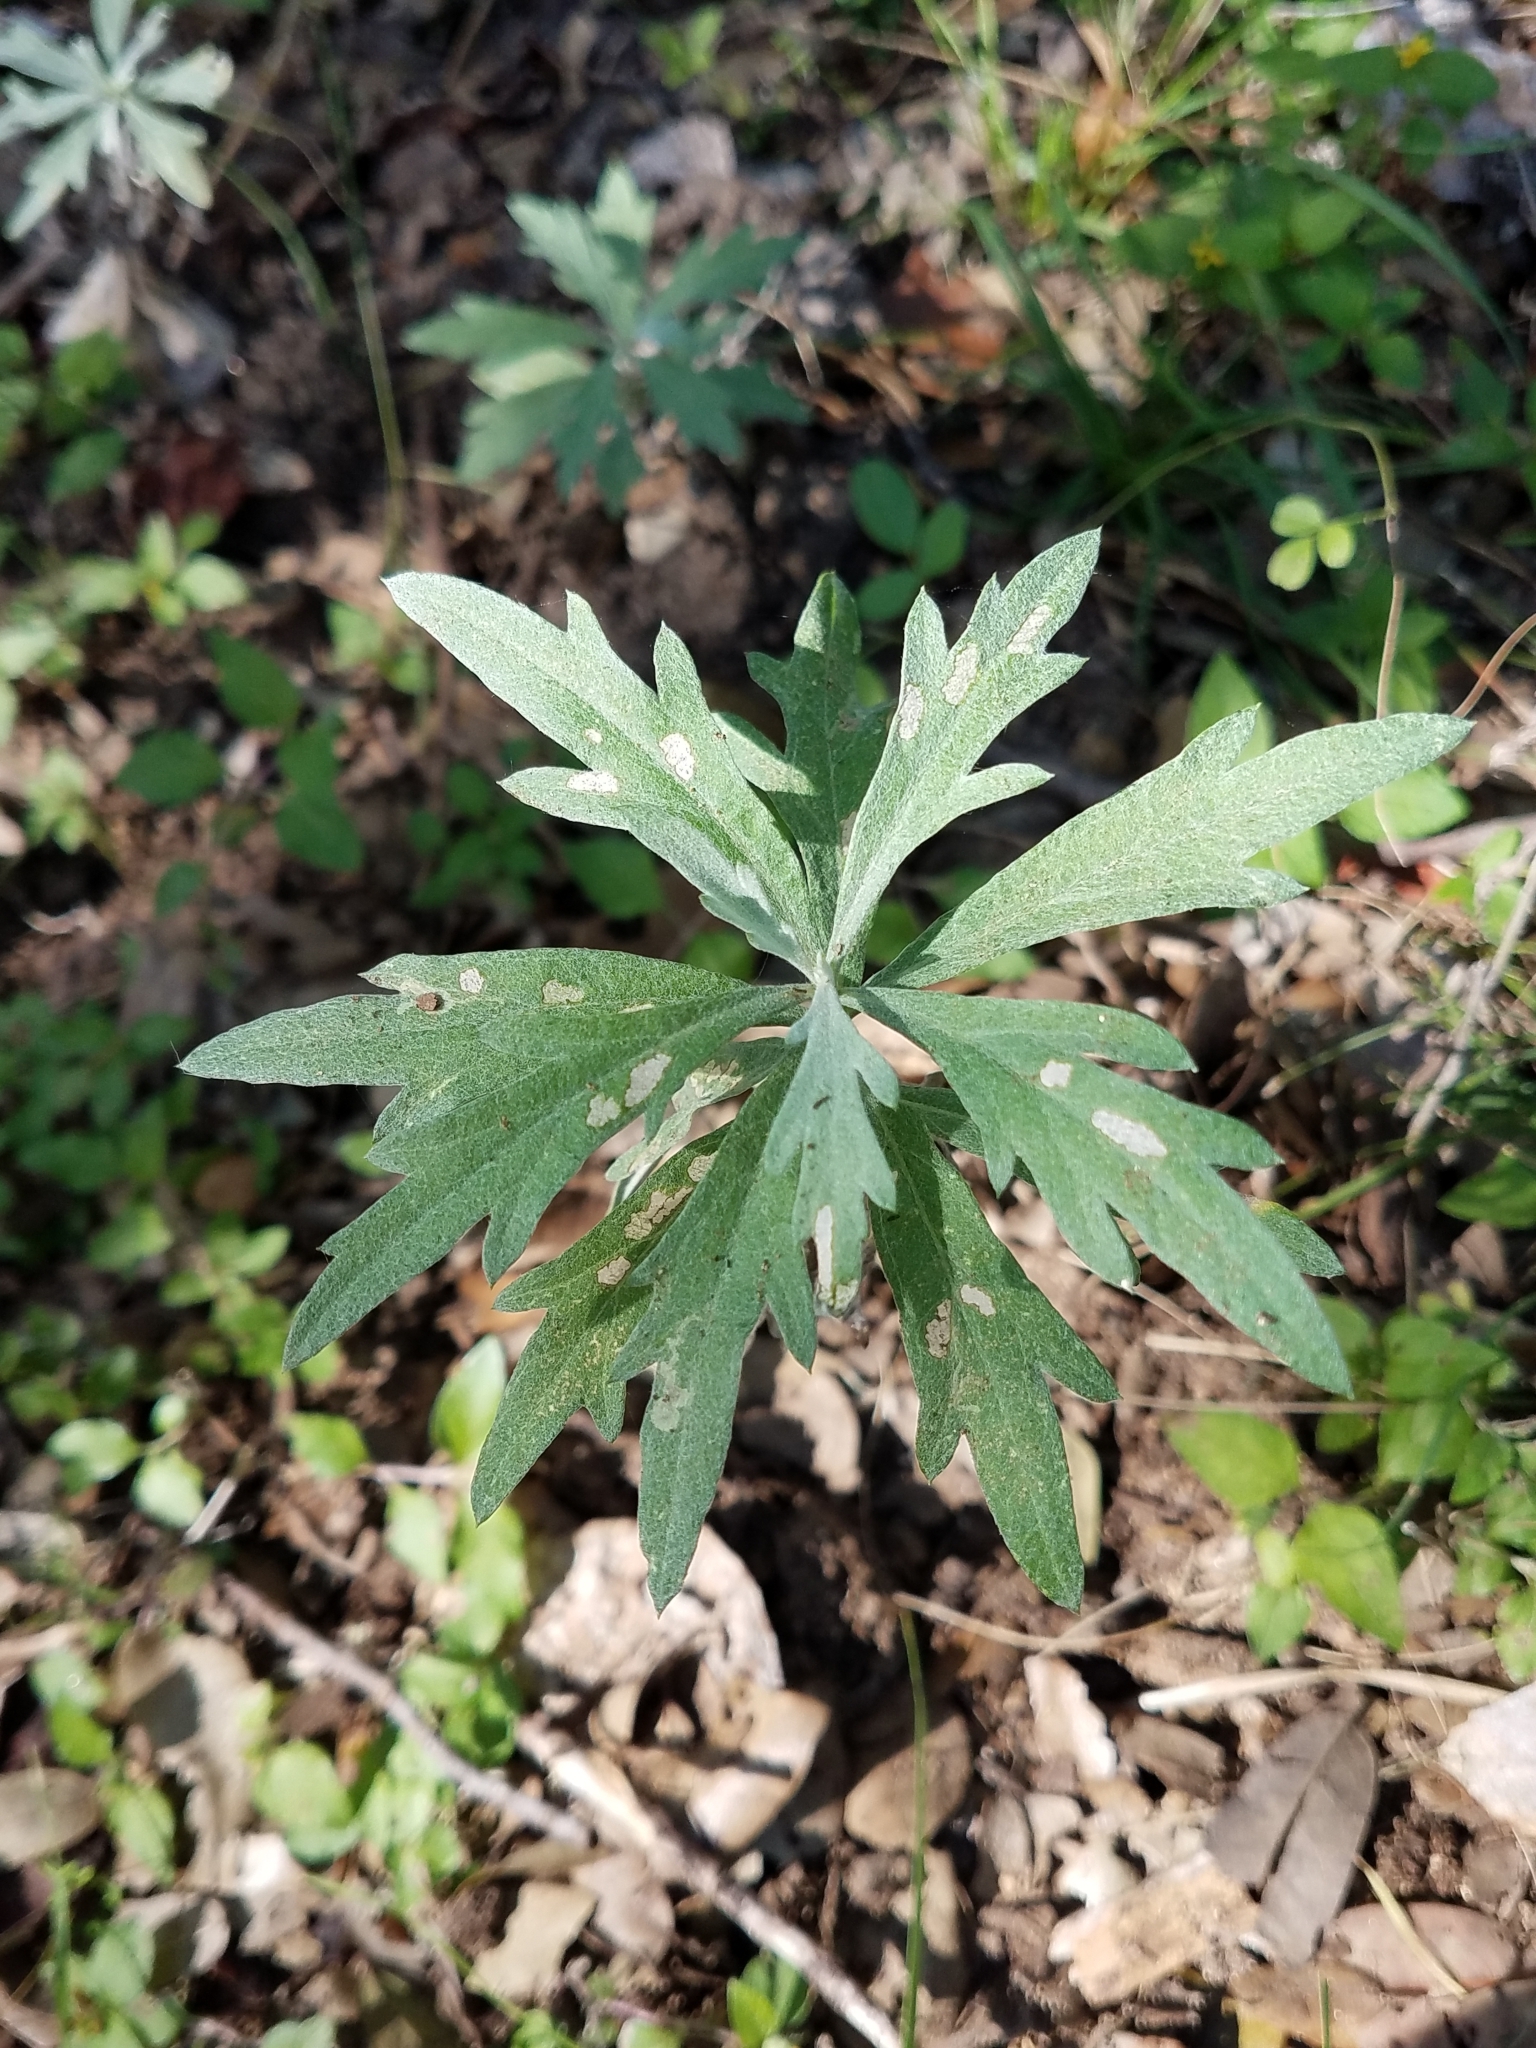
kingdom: Plantae
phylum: Tracheophyta
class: Magnoliopsida
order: Asterales
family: Asteraceae
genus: Artemisia
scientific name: Artemisia ludoviciana
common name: Western mugwort
